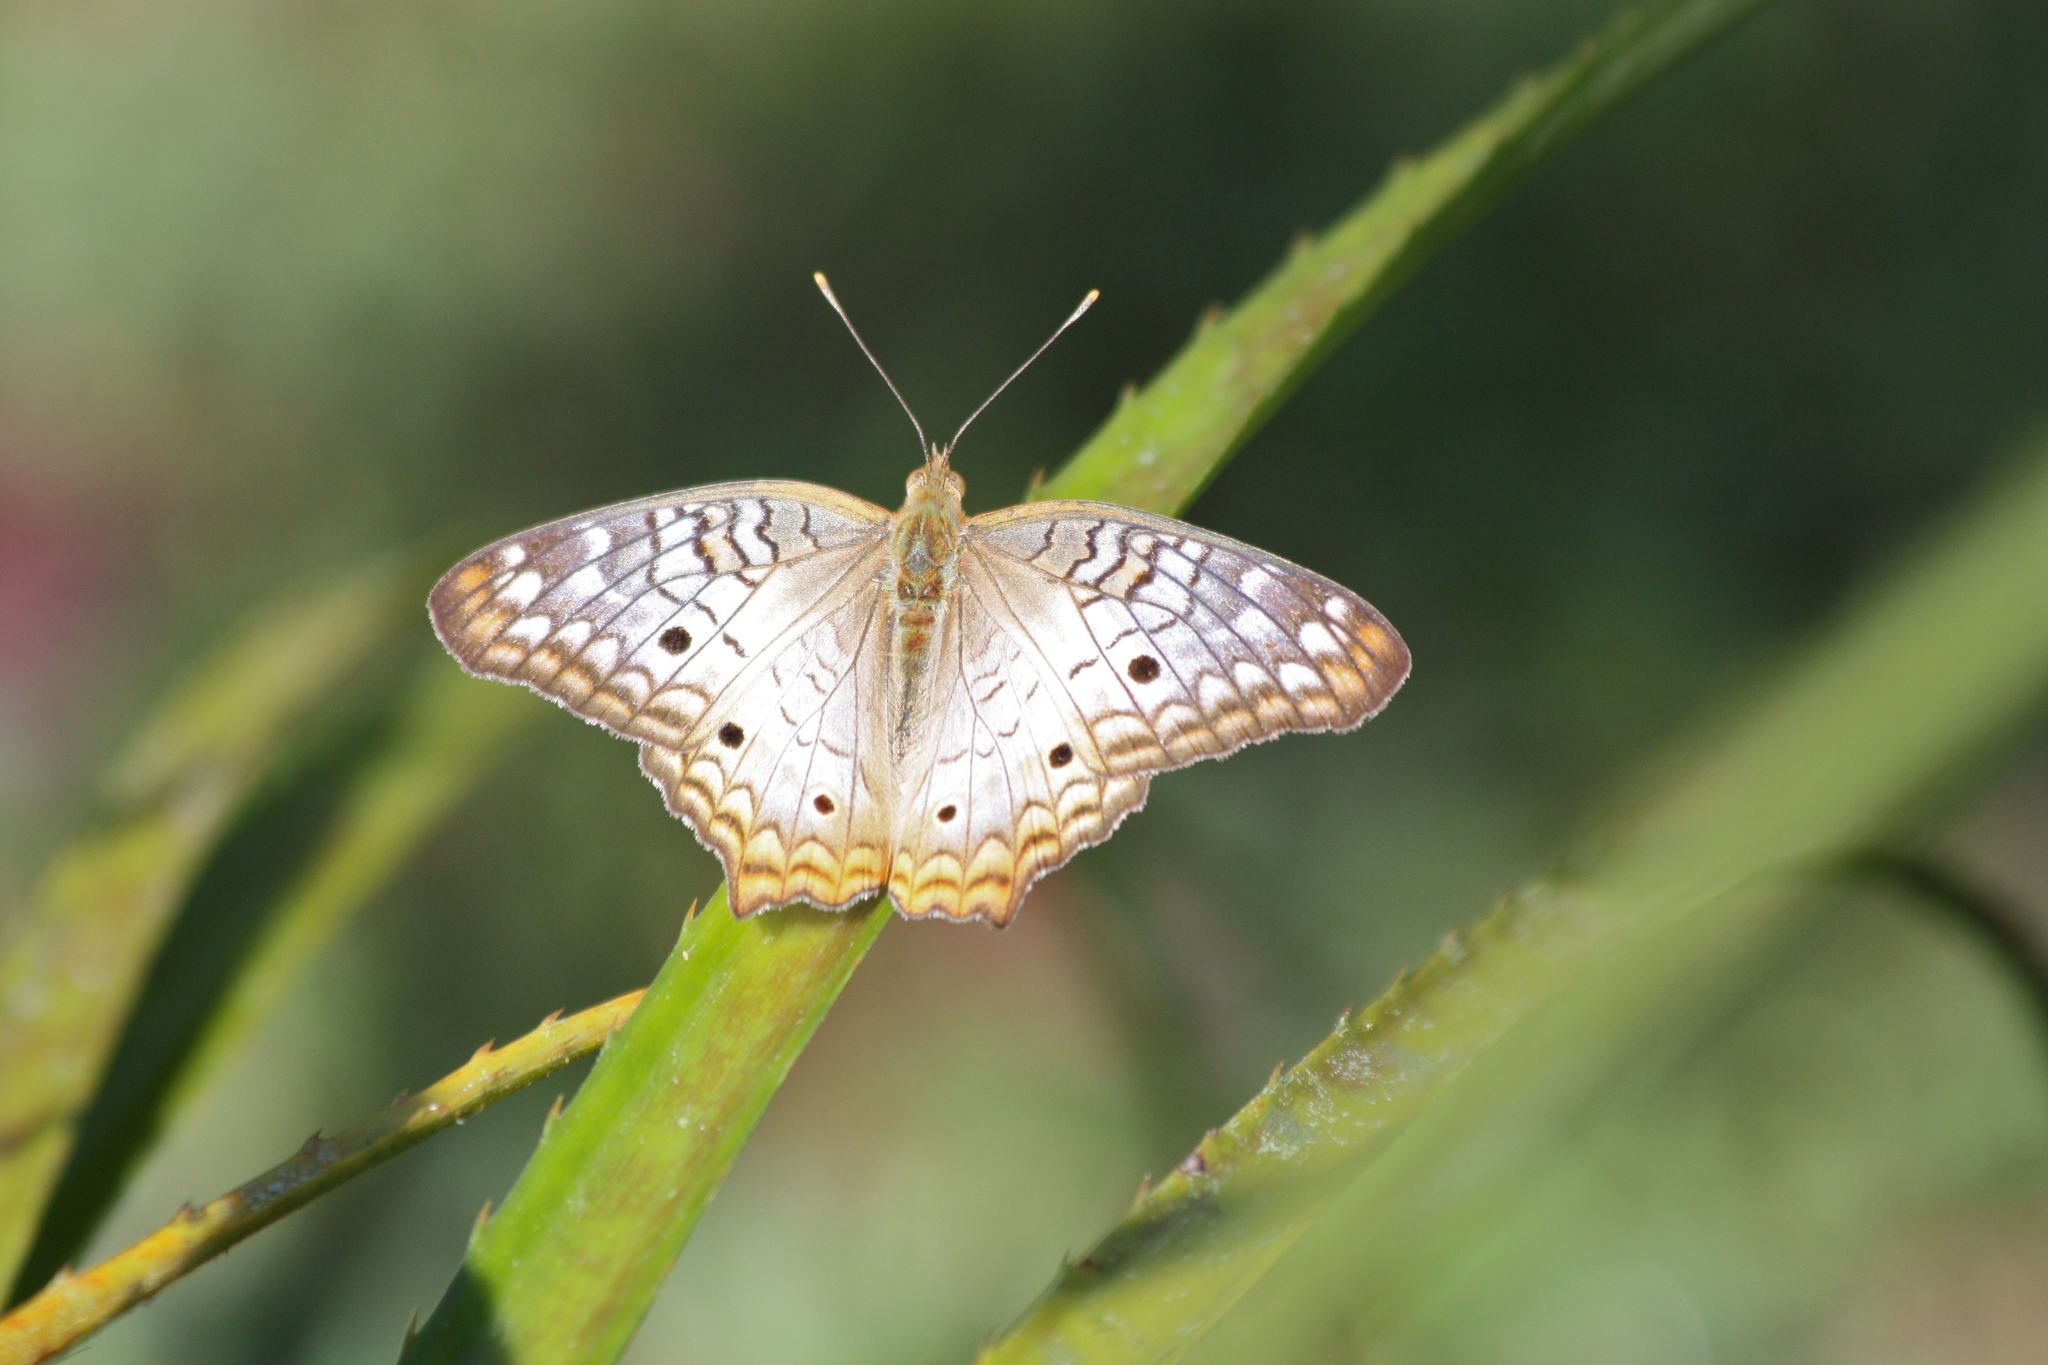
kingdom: Animalia
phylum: Arthropoda
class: Insecta
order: Lepidoptera
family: Nymphalidae
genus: Anartia
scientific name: Anartia jatrophae
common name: White peacock
